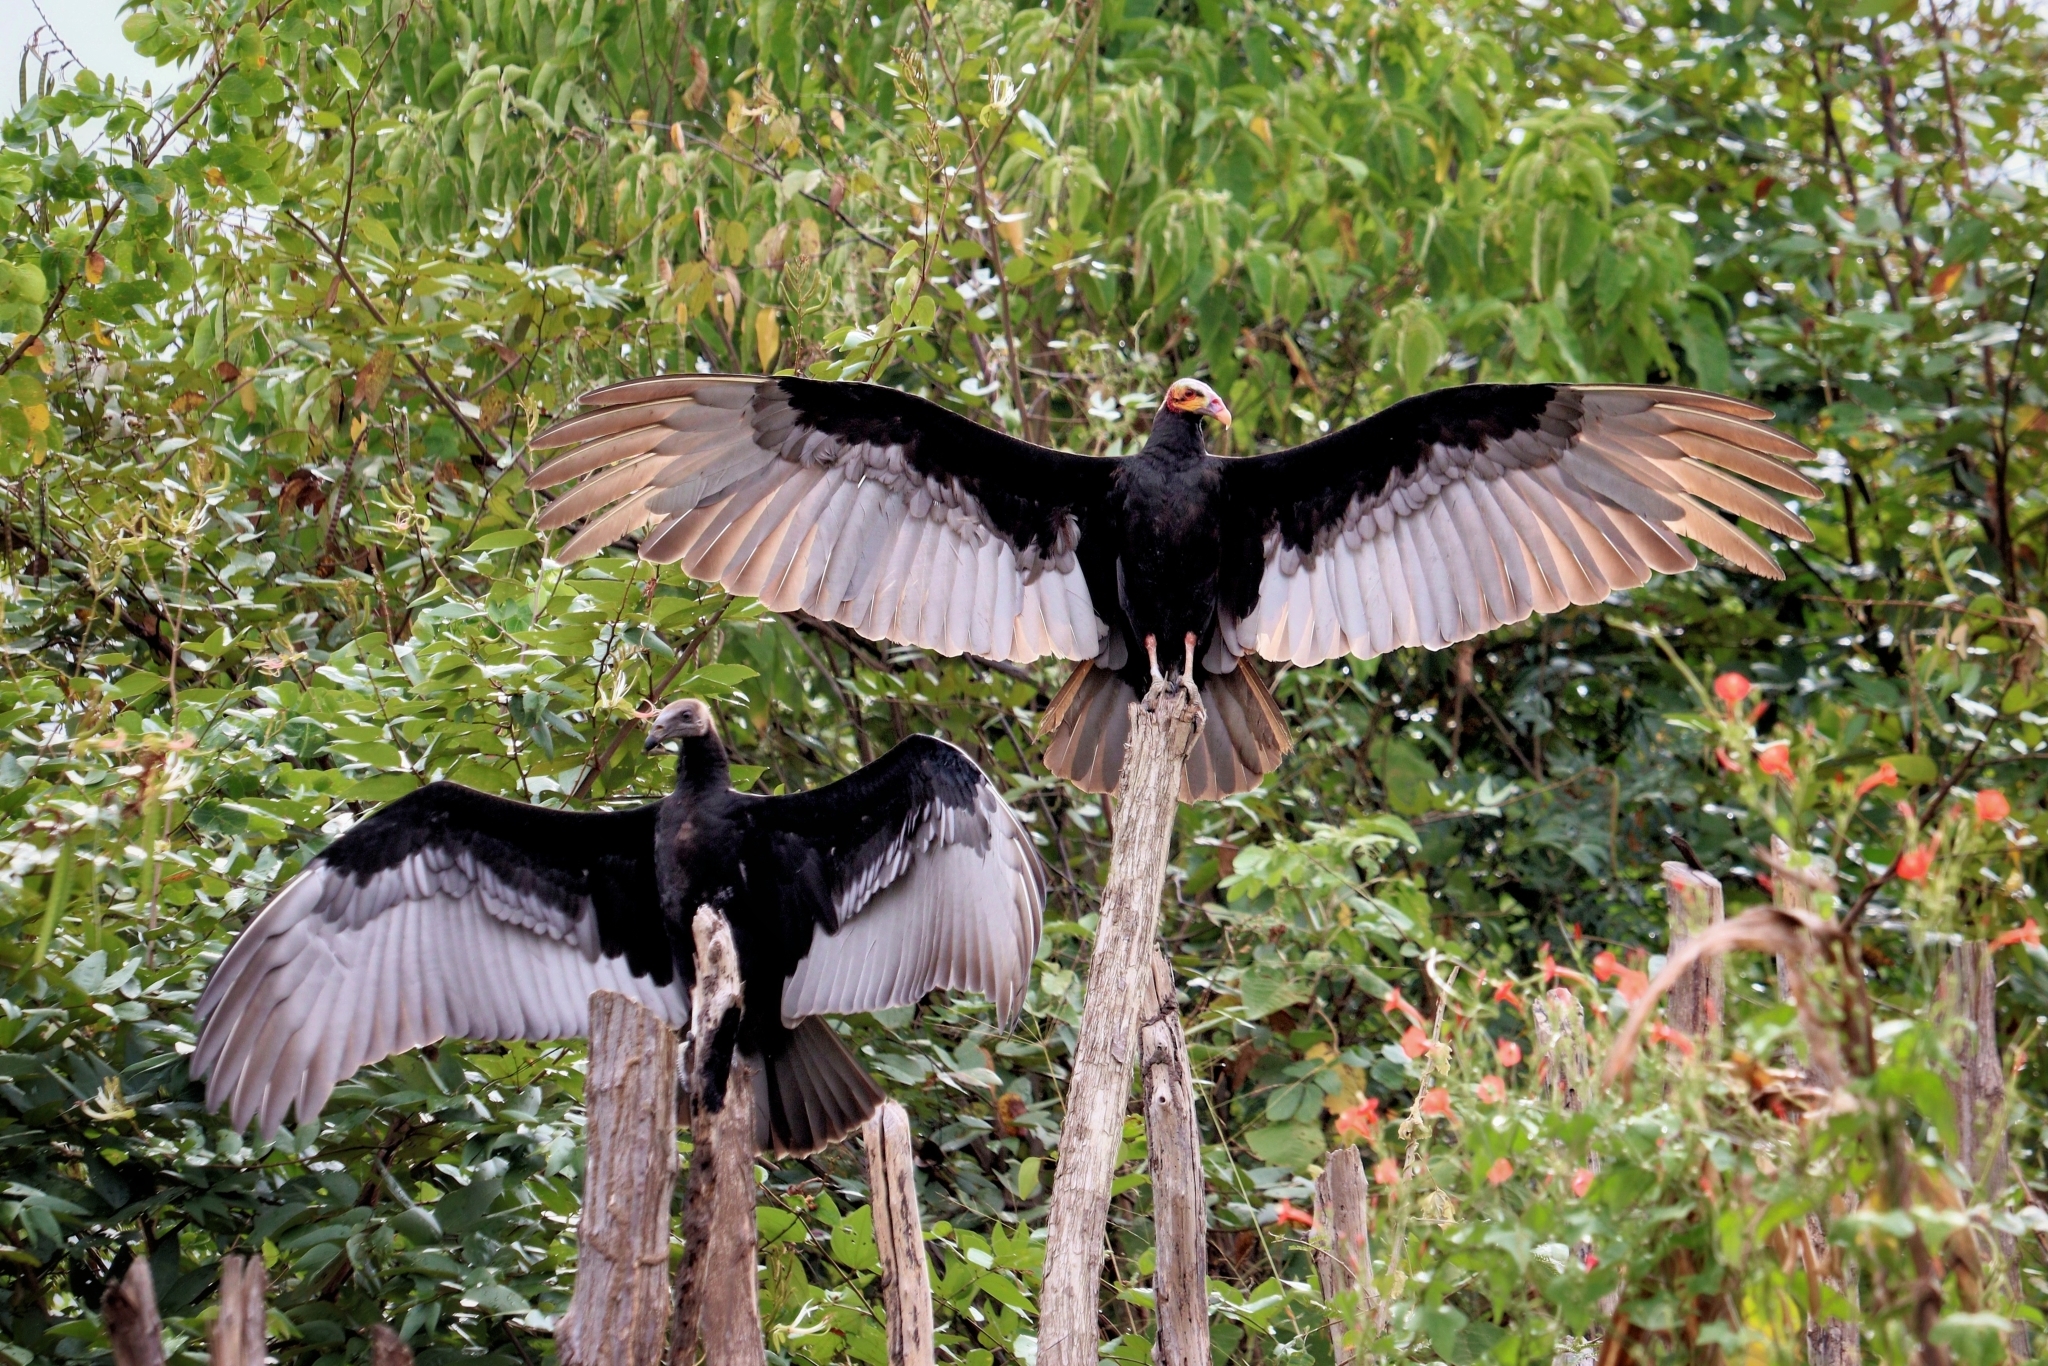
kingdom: Animalia
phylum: Chordata
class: Aves
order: Accipitriformes
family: Cathartidae
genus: Cathartes
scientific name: Cathartes burrovianus
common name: Lesser yellow-headed vulture
